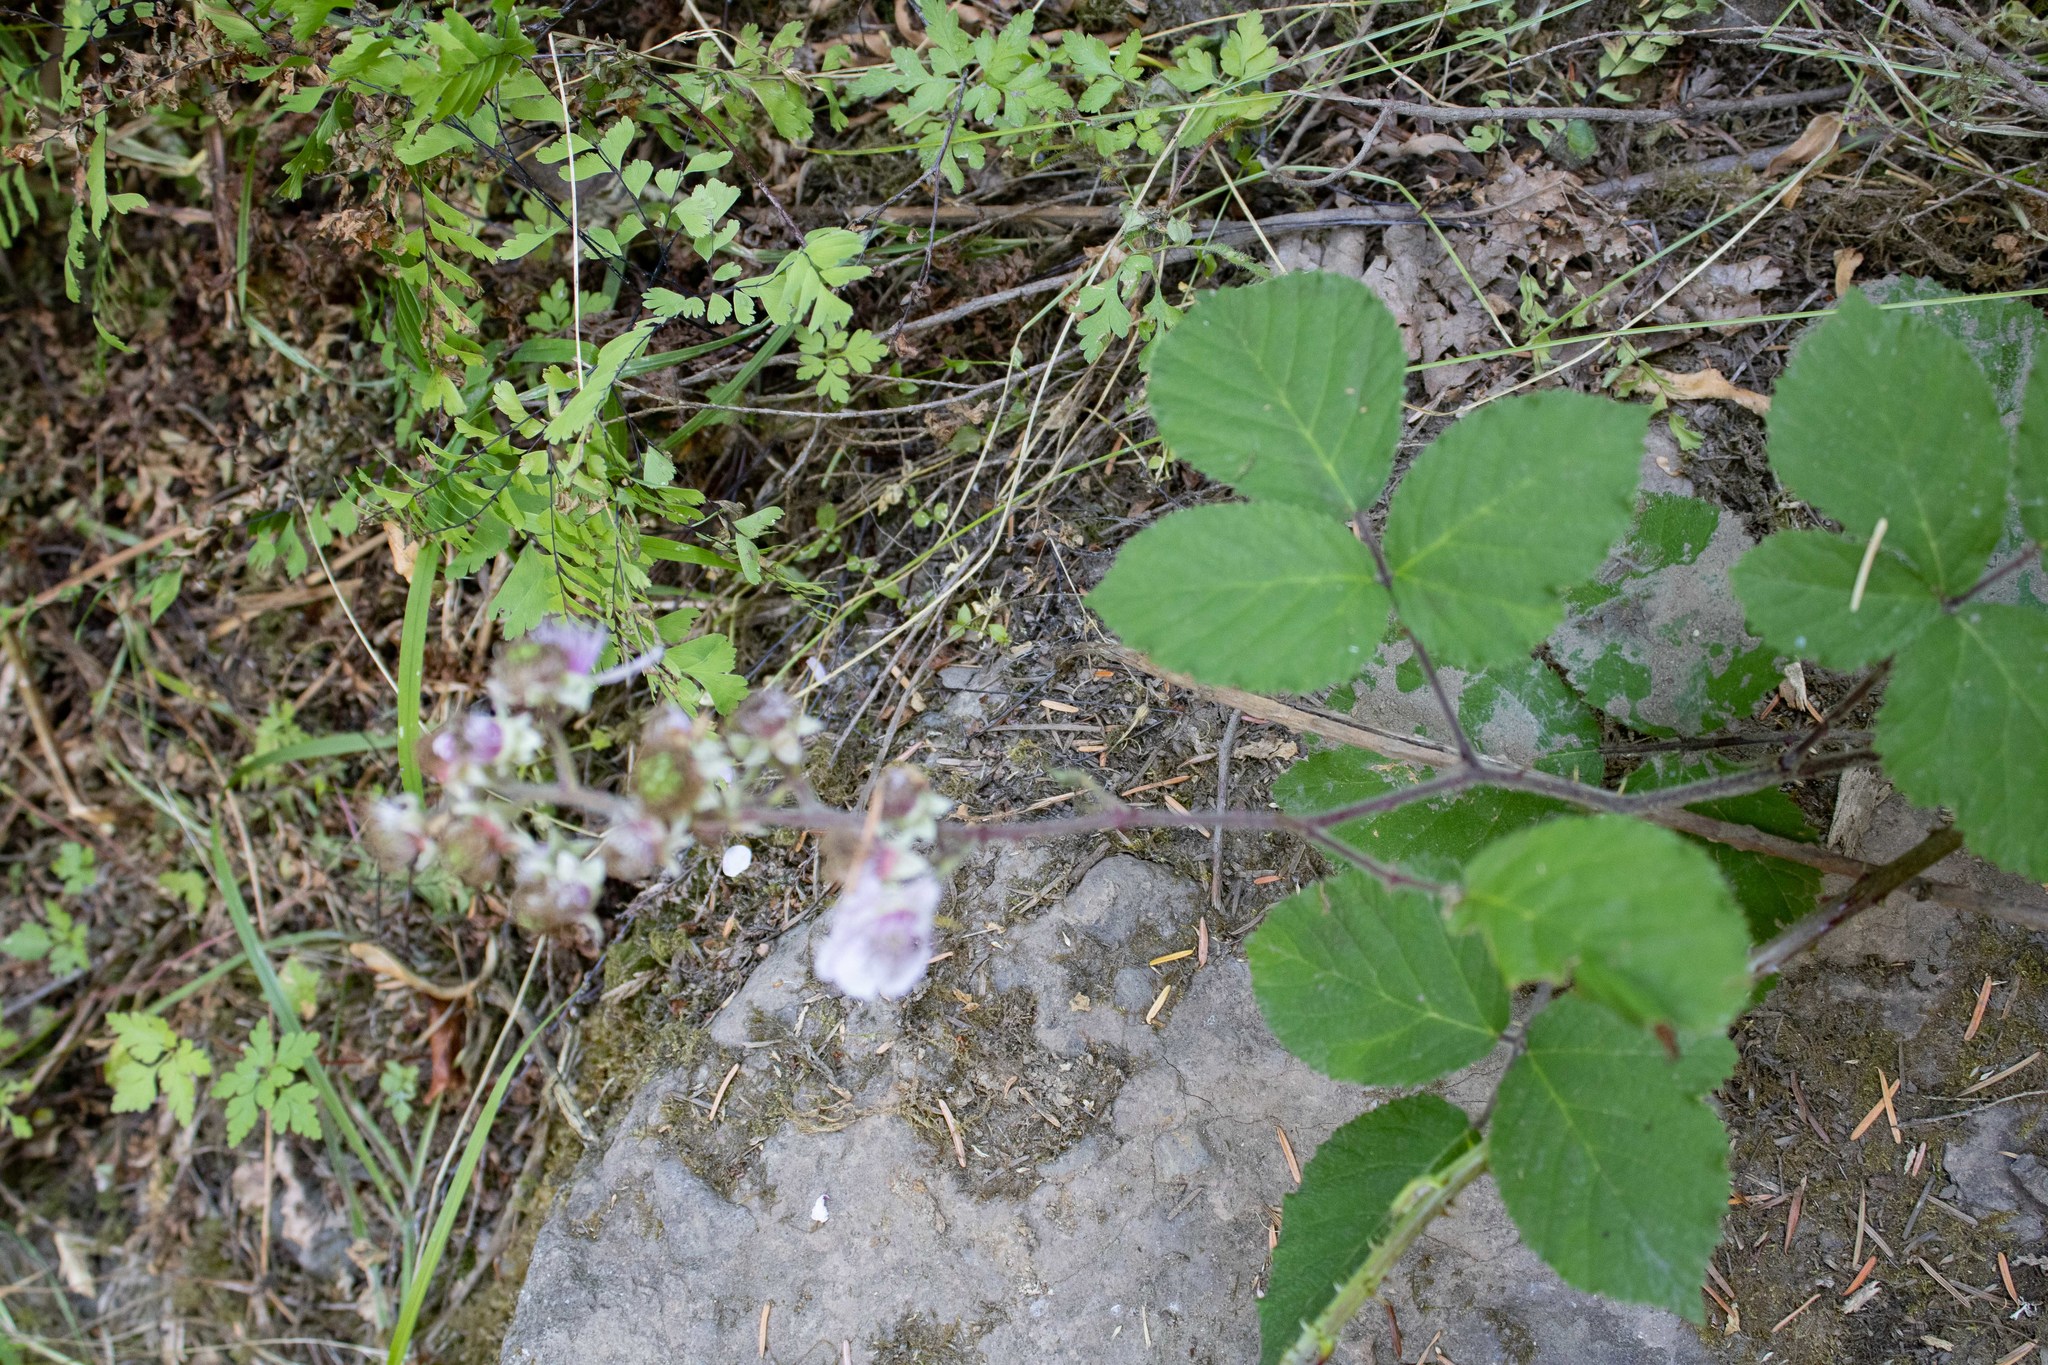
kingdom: Plantae
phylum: Tracheophyta
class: Magnoliopsida
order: Rosales
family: Rosaceae
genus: Rubus
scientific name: Rubus vestitus
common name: European blackberry
